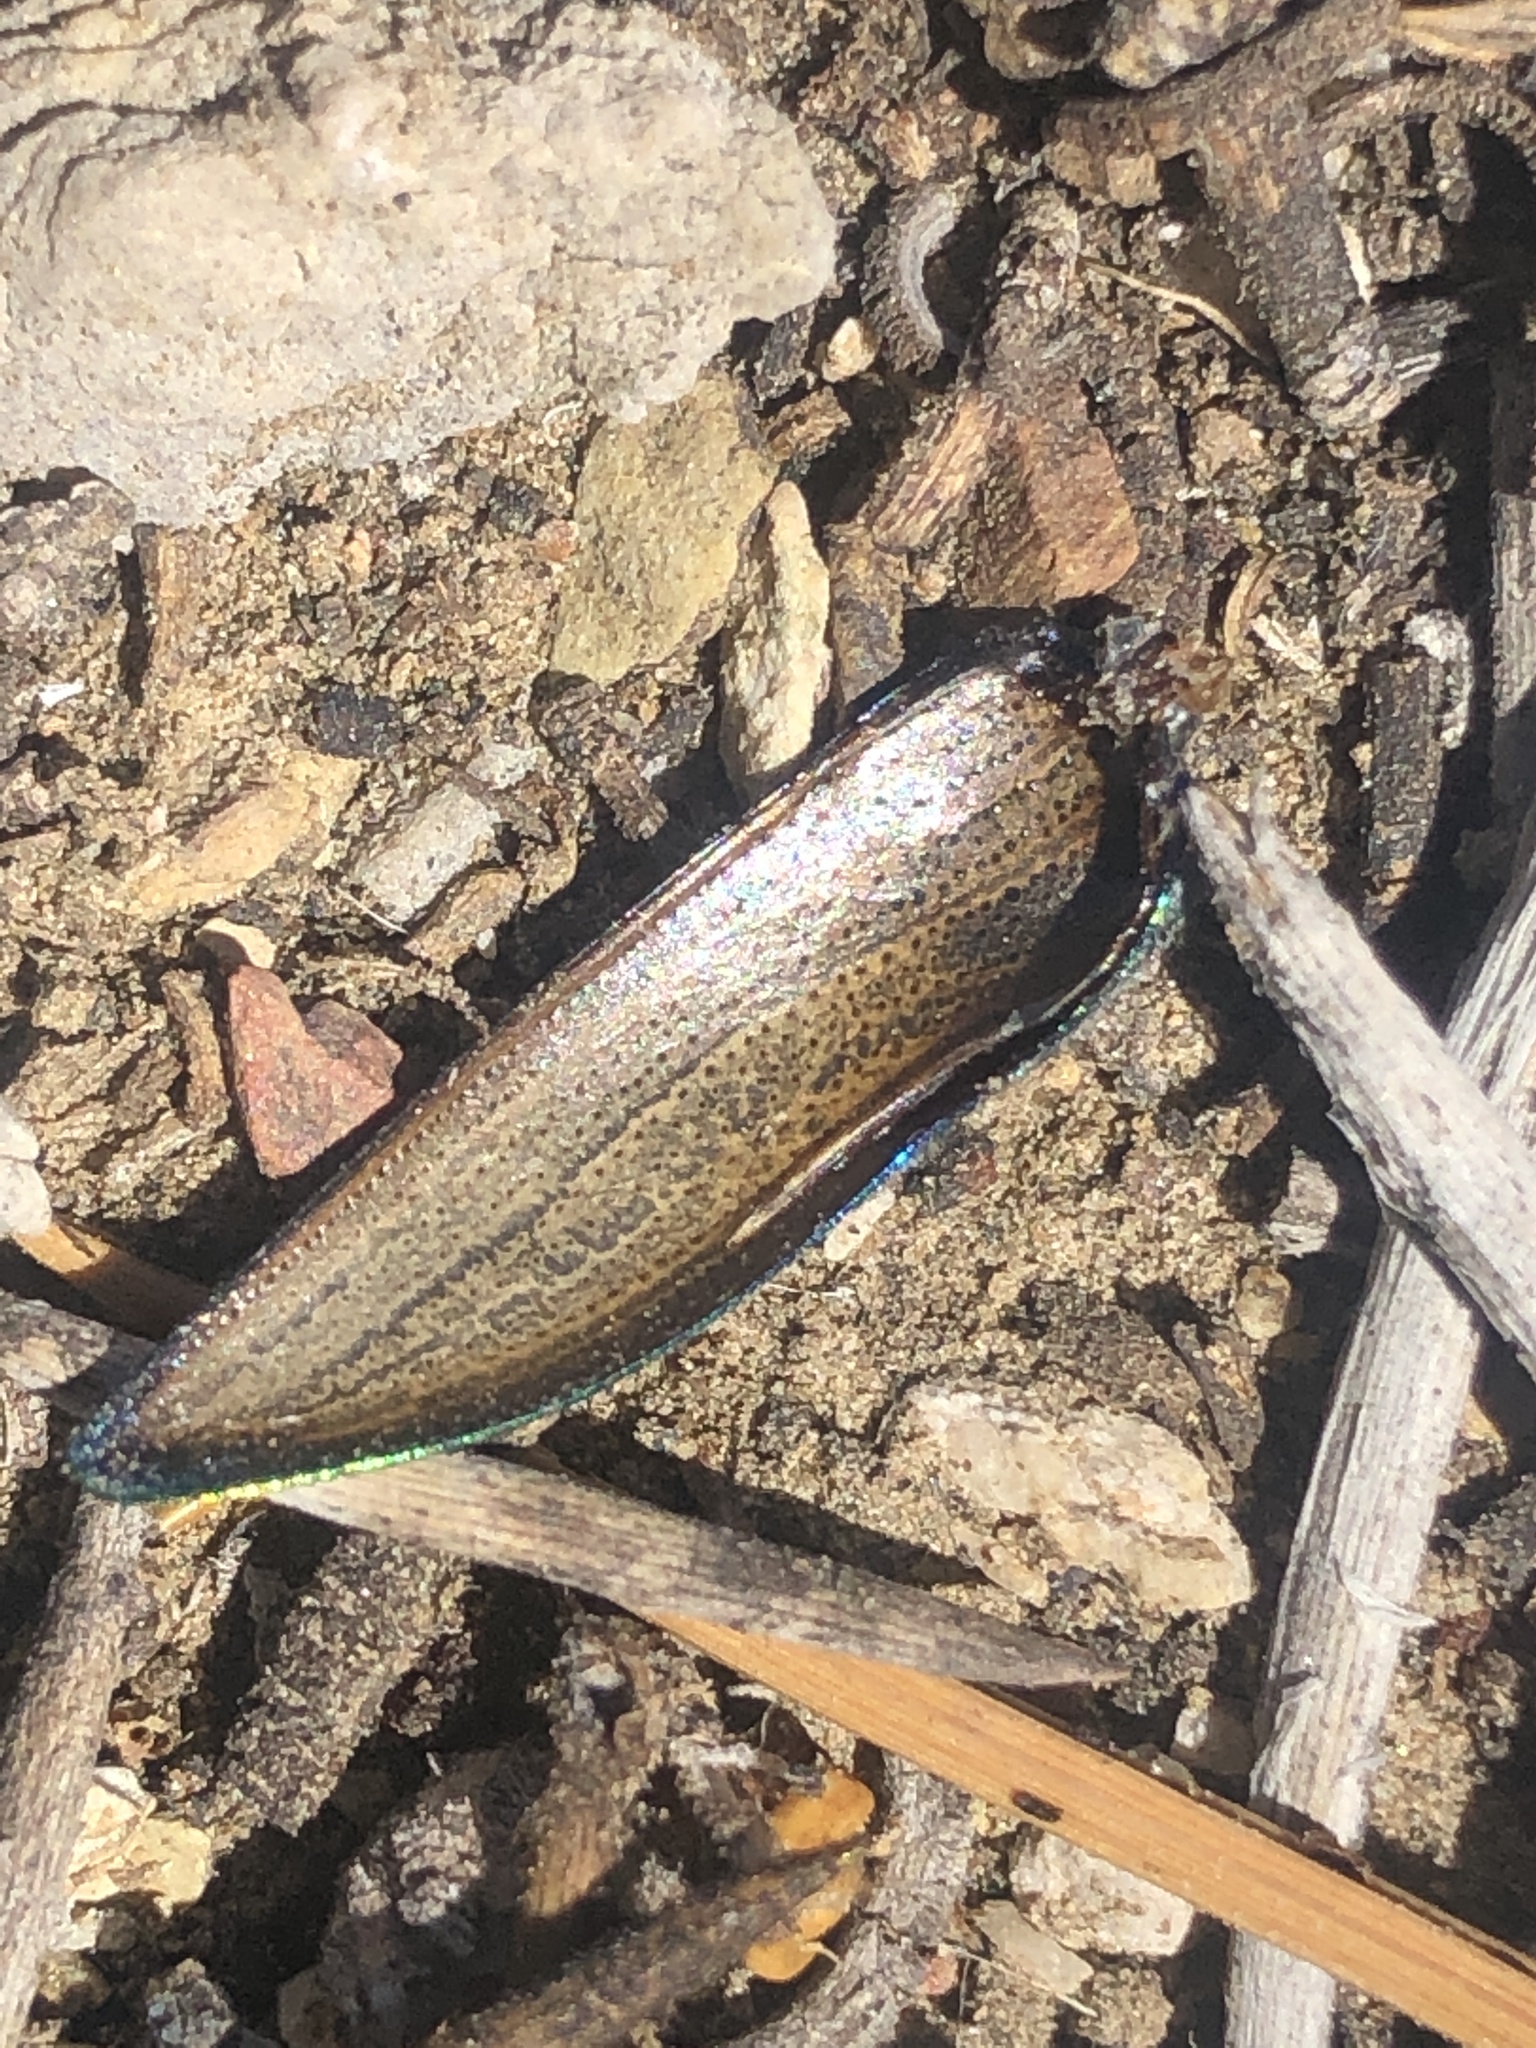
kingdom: Animalia
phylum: Arthropoda
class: Insecta
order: Coleoptera
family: Buprestidae
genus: Buprestis
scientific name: Buprestis prospera
